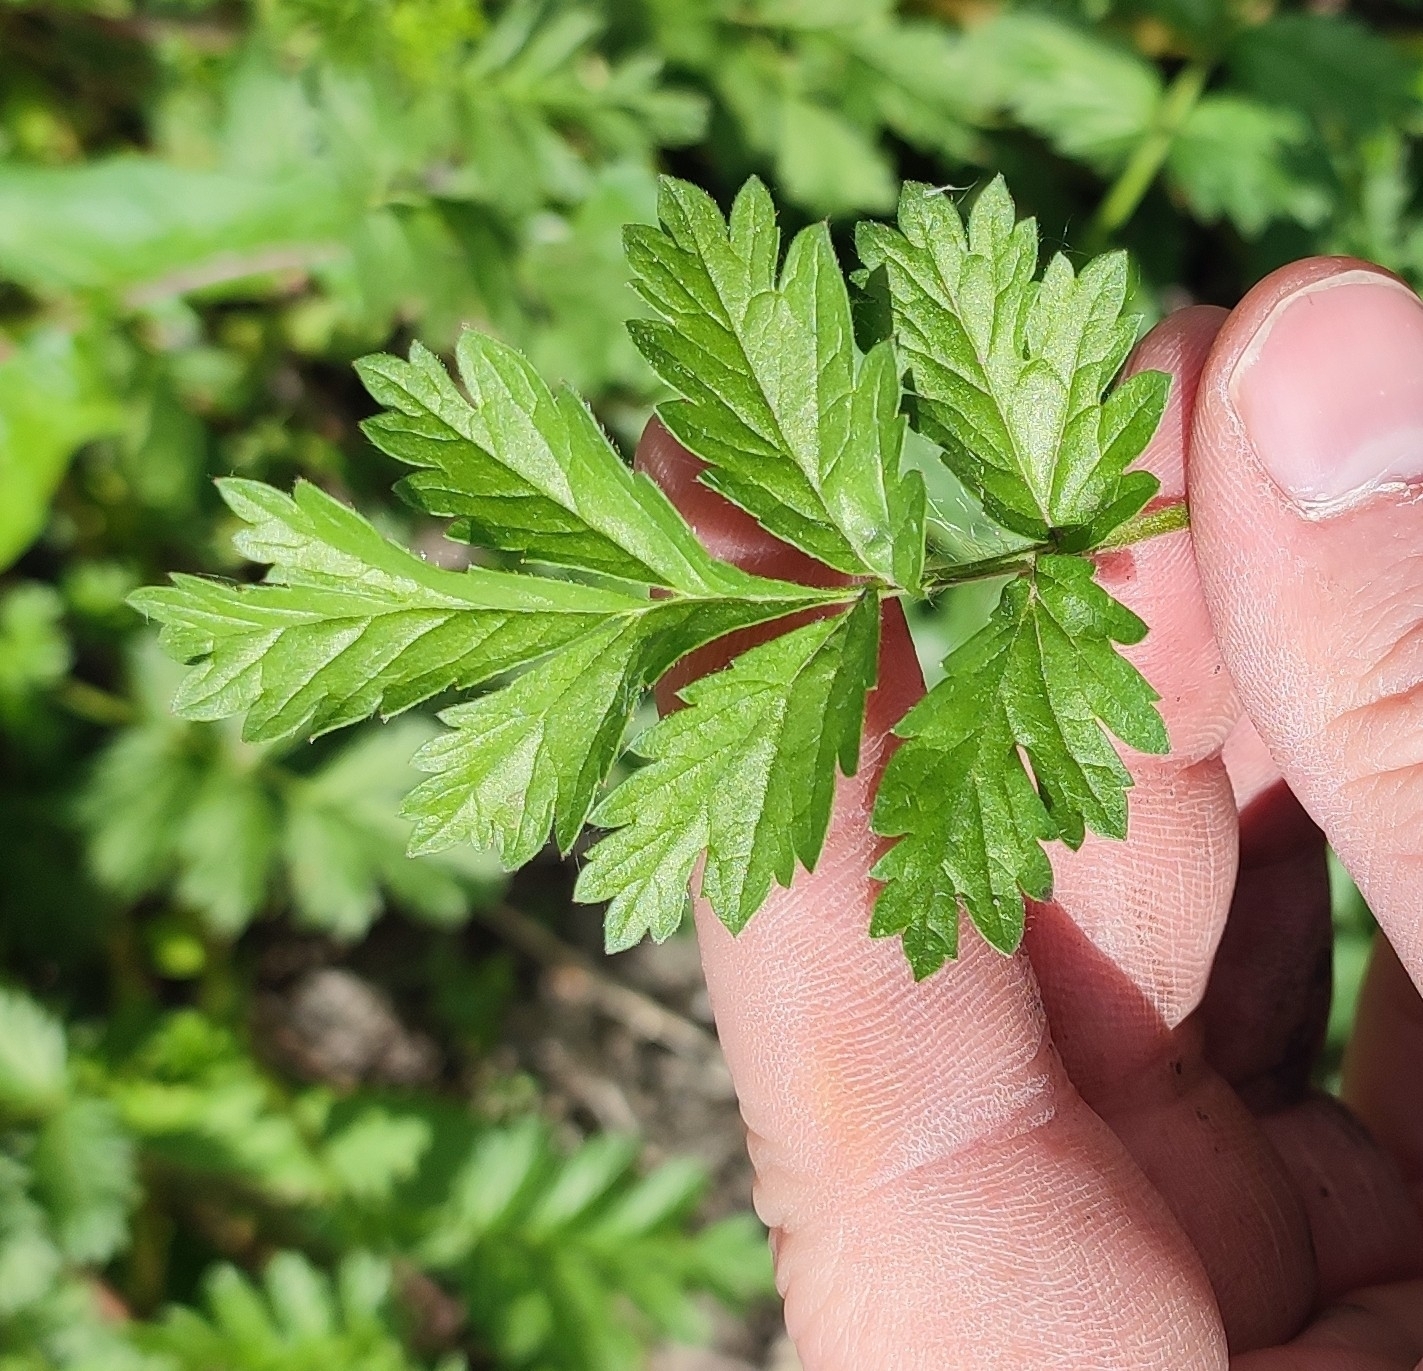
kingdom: Plantae
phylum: Tracheophyta
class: Magnoliopsida
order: Rosales
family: Rosaceae
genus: Potentilla
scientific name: Potentilla supina
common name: Prostrate cinquefoil
